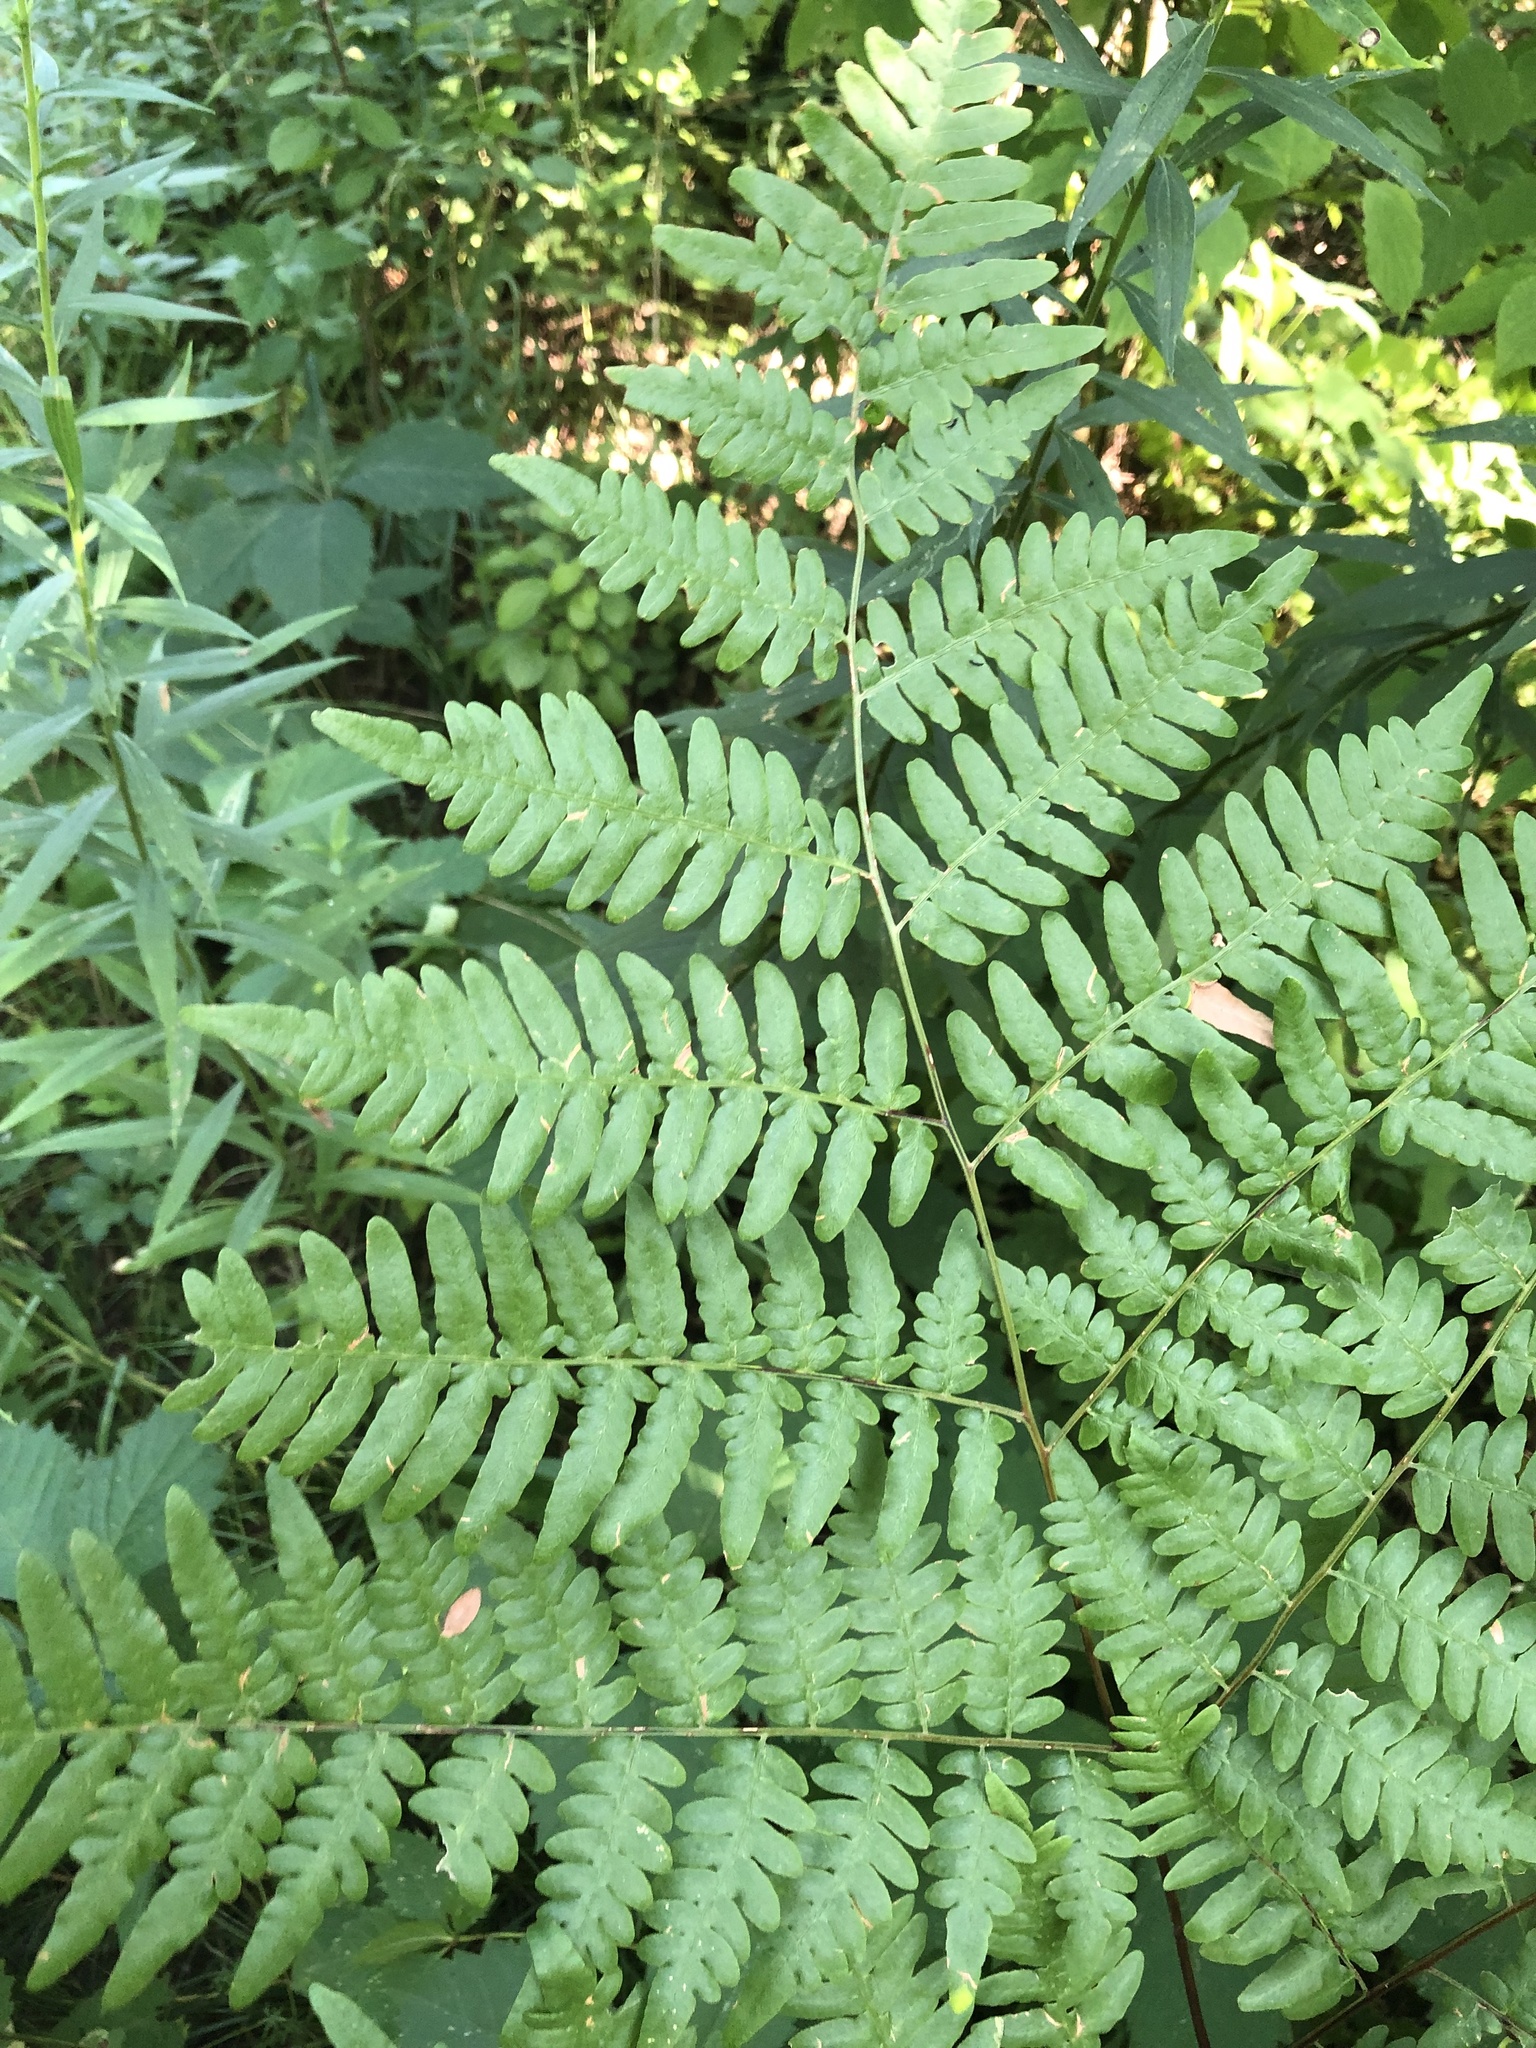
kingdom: Plantae
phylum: Tracheophyta
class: Polypodiopsida
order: Polypodiales
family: Dennstaedtiaceae
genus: Pteridium
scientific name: Pteridium aquilinum
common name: Bracken
